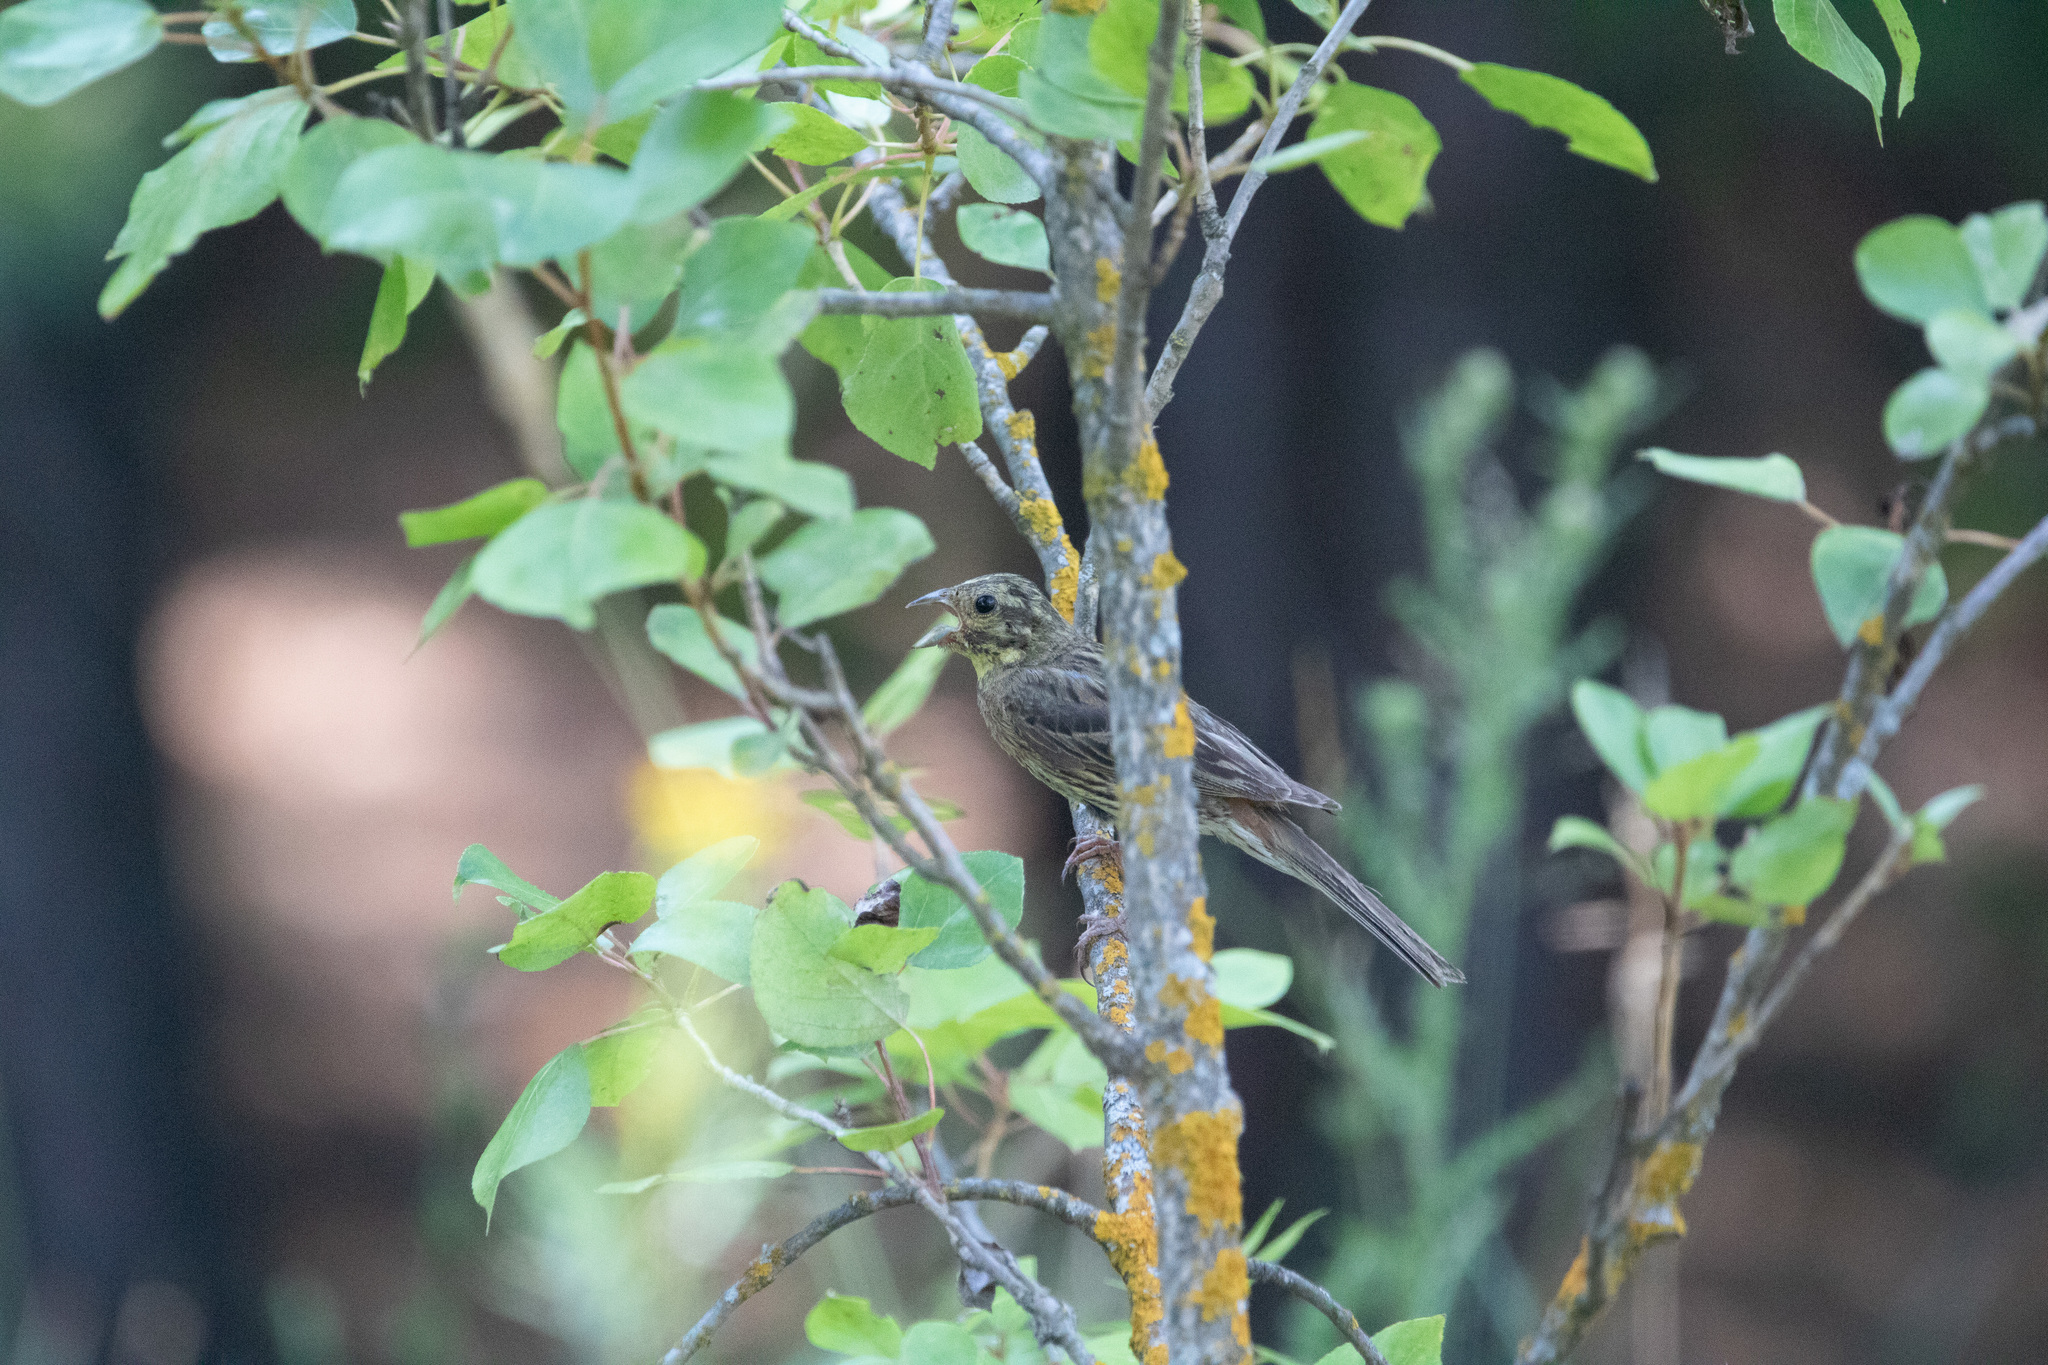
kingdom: Animalia
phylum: Chordata
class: Aves
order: Passeriformes
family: Emberizidae
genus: Emberiza
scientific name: Emberiza citrinella
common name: Yellowhammer
